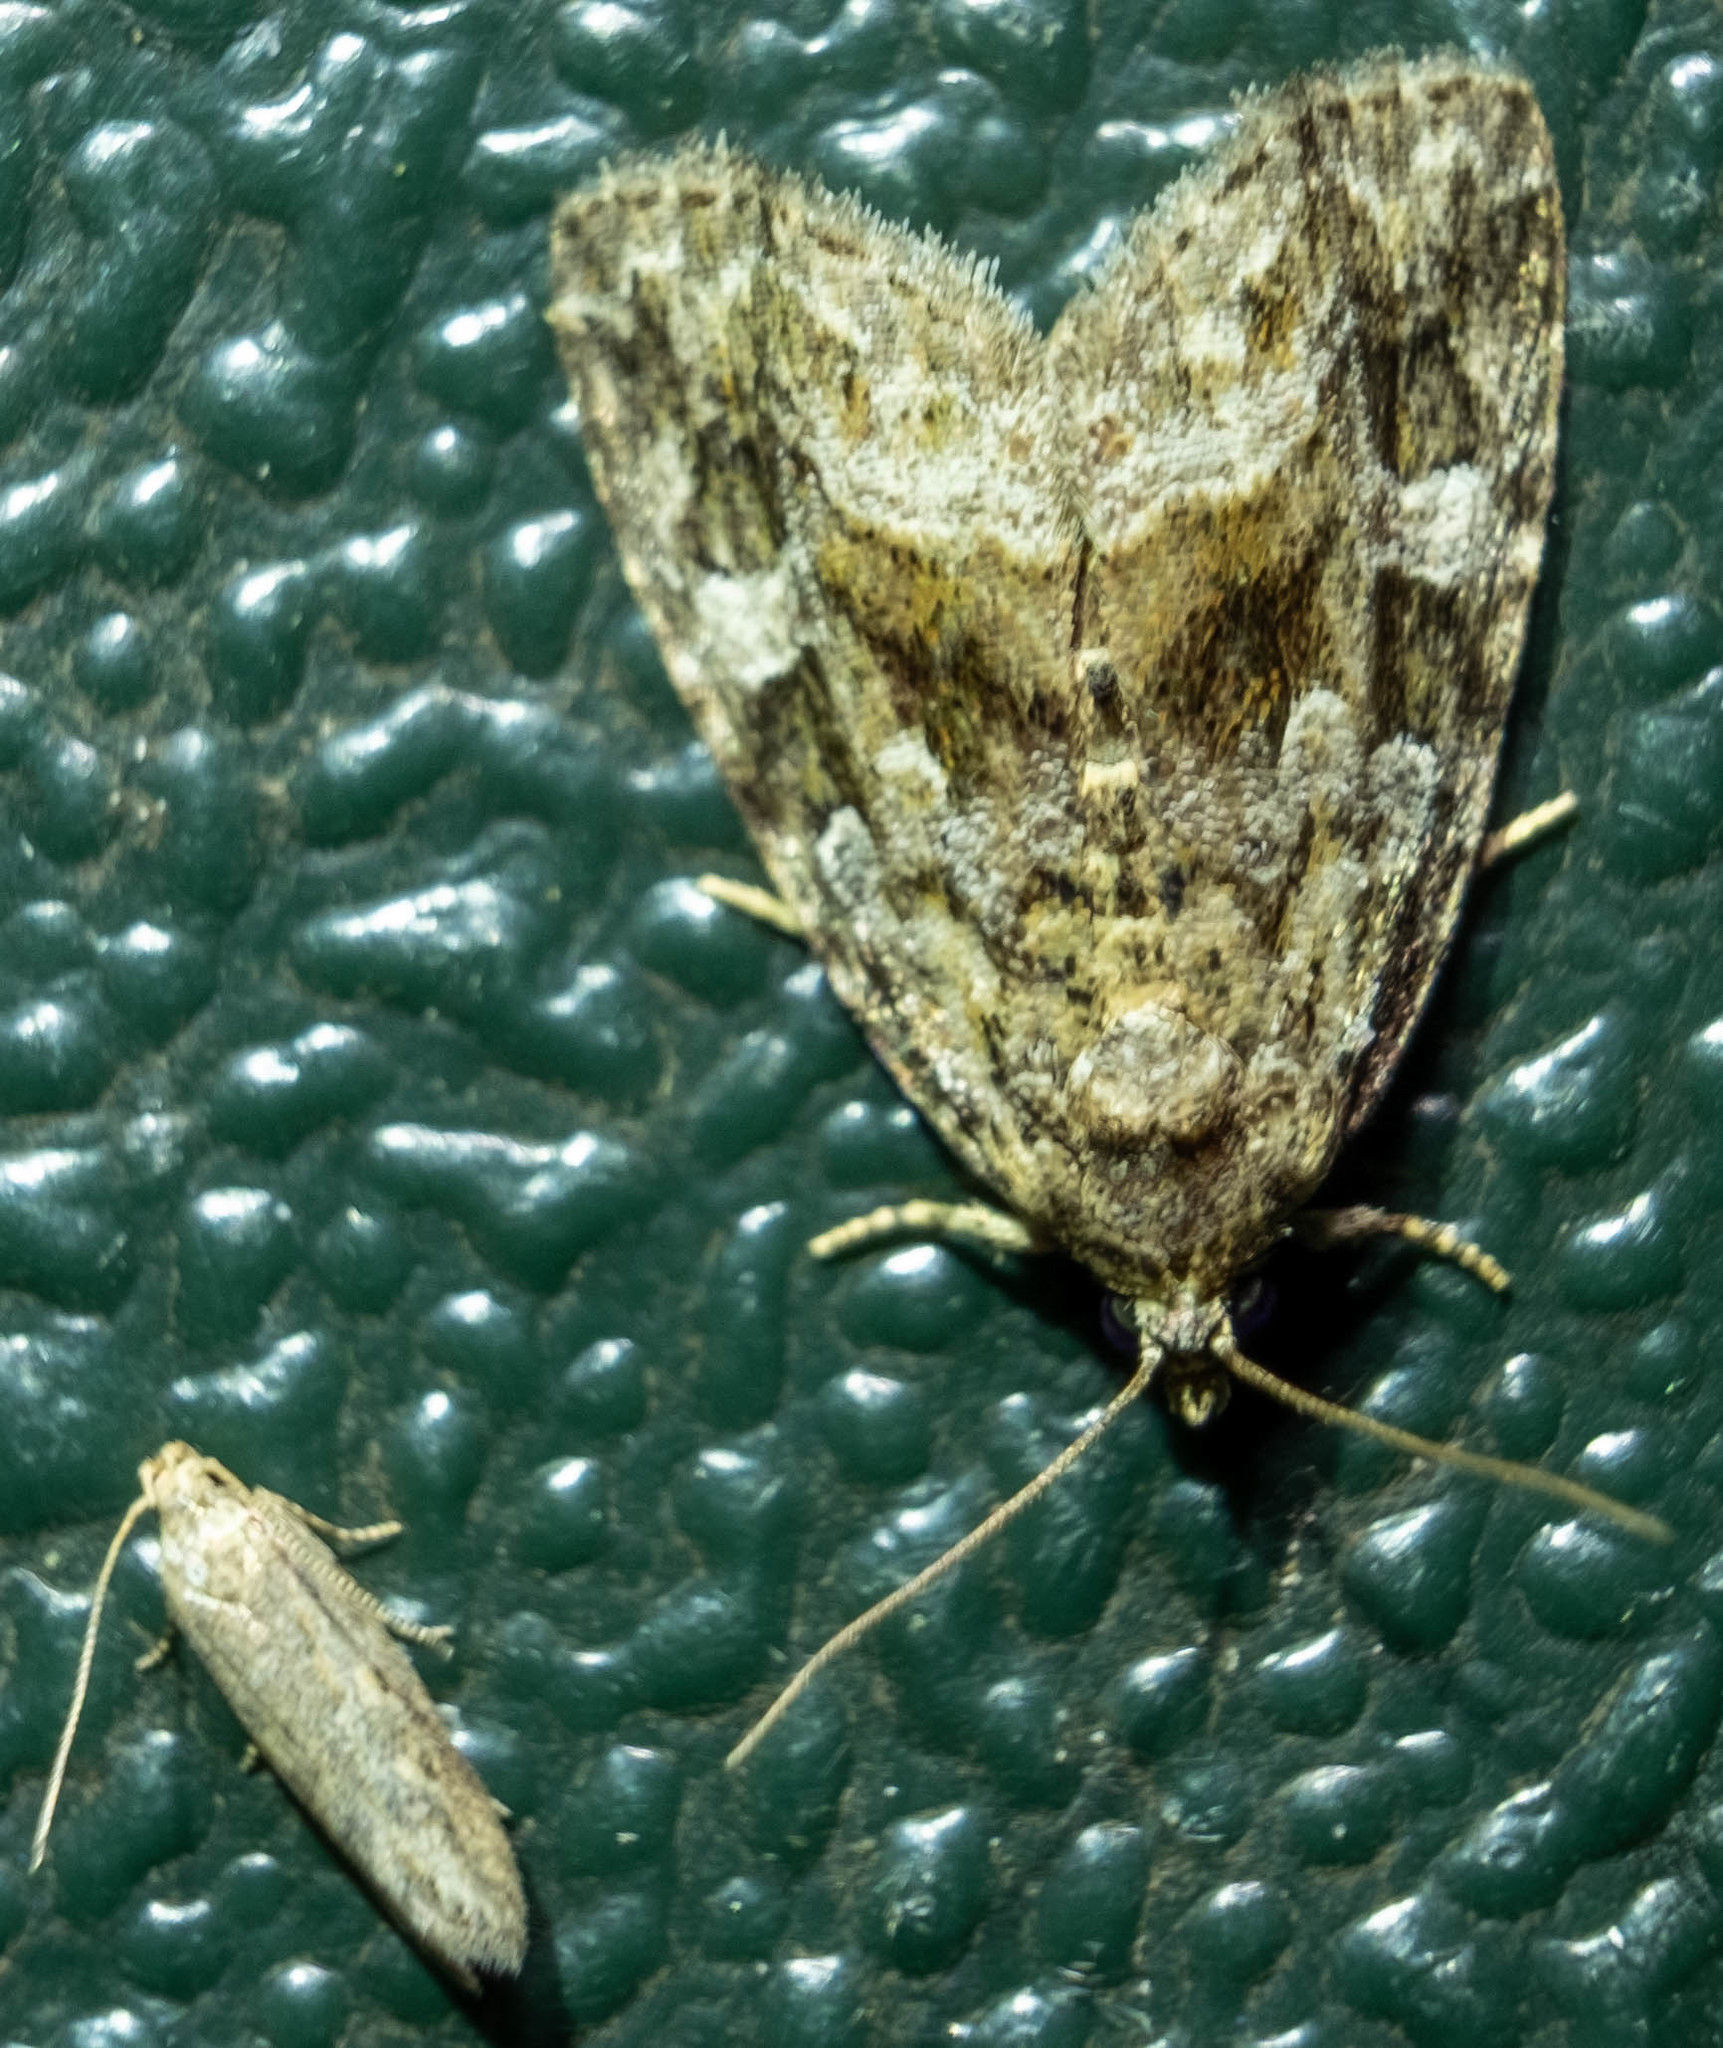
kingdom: Animalia
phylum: Arthropoda
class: Insecta
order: Lepidoptera
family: Noctuidae
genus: Protodeltote
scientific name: Protodeltote muscosula
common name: Large mossy glyph
